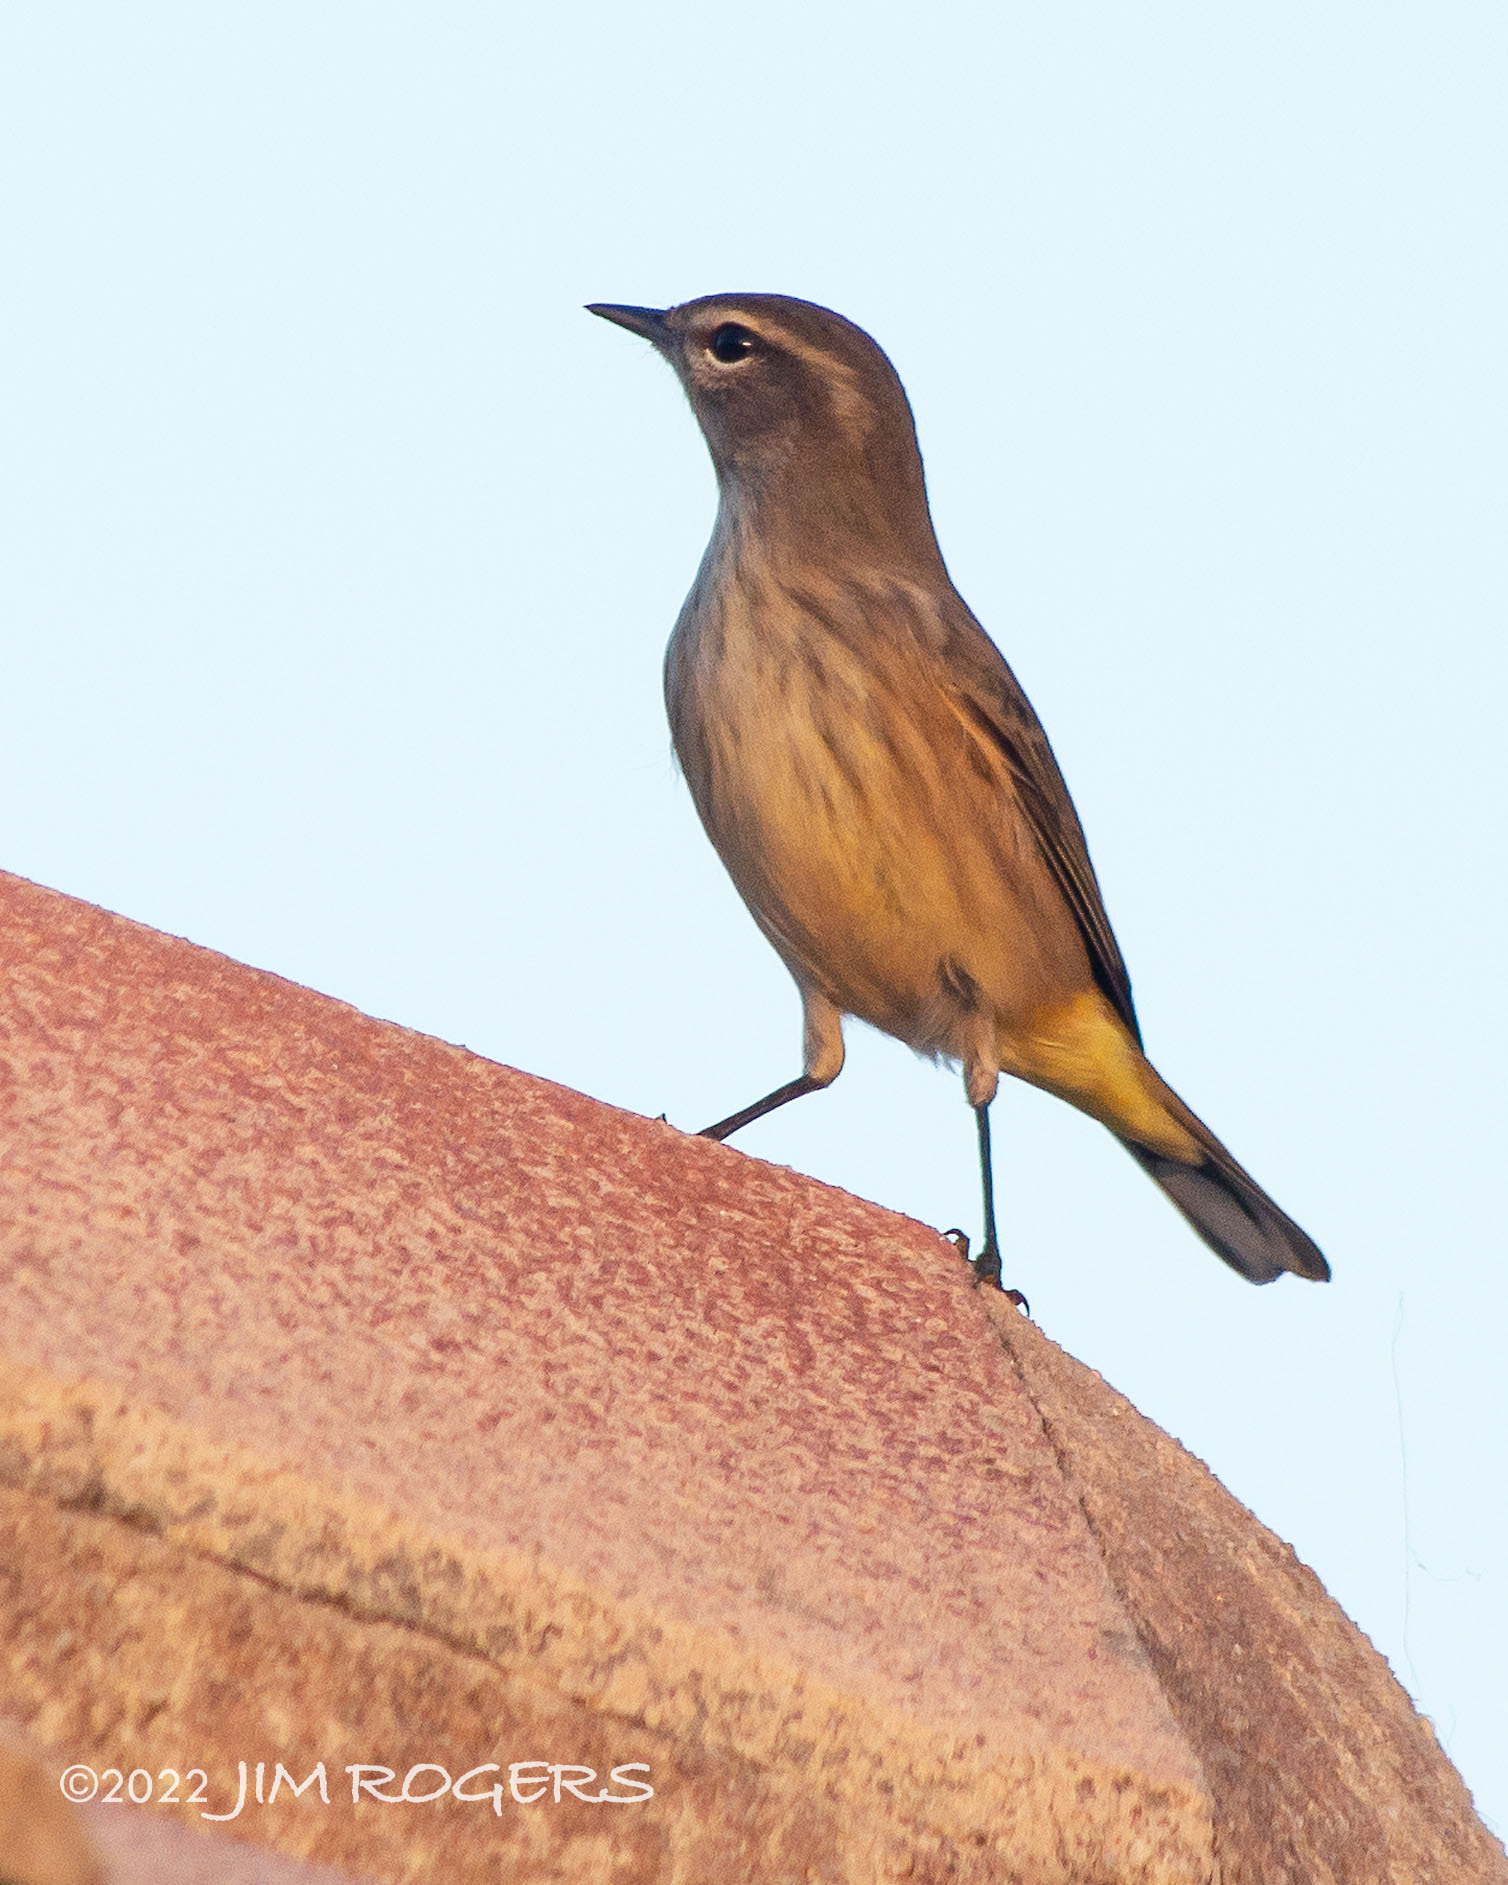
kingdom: Animalia
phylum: Chordata
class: Aves
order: Passeriformes
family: Parulidae
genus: Setophaga
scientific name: Setophaga palmarum
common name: Palm warbler
